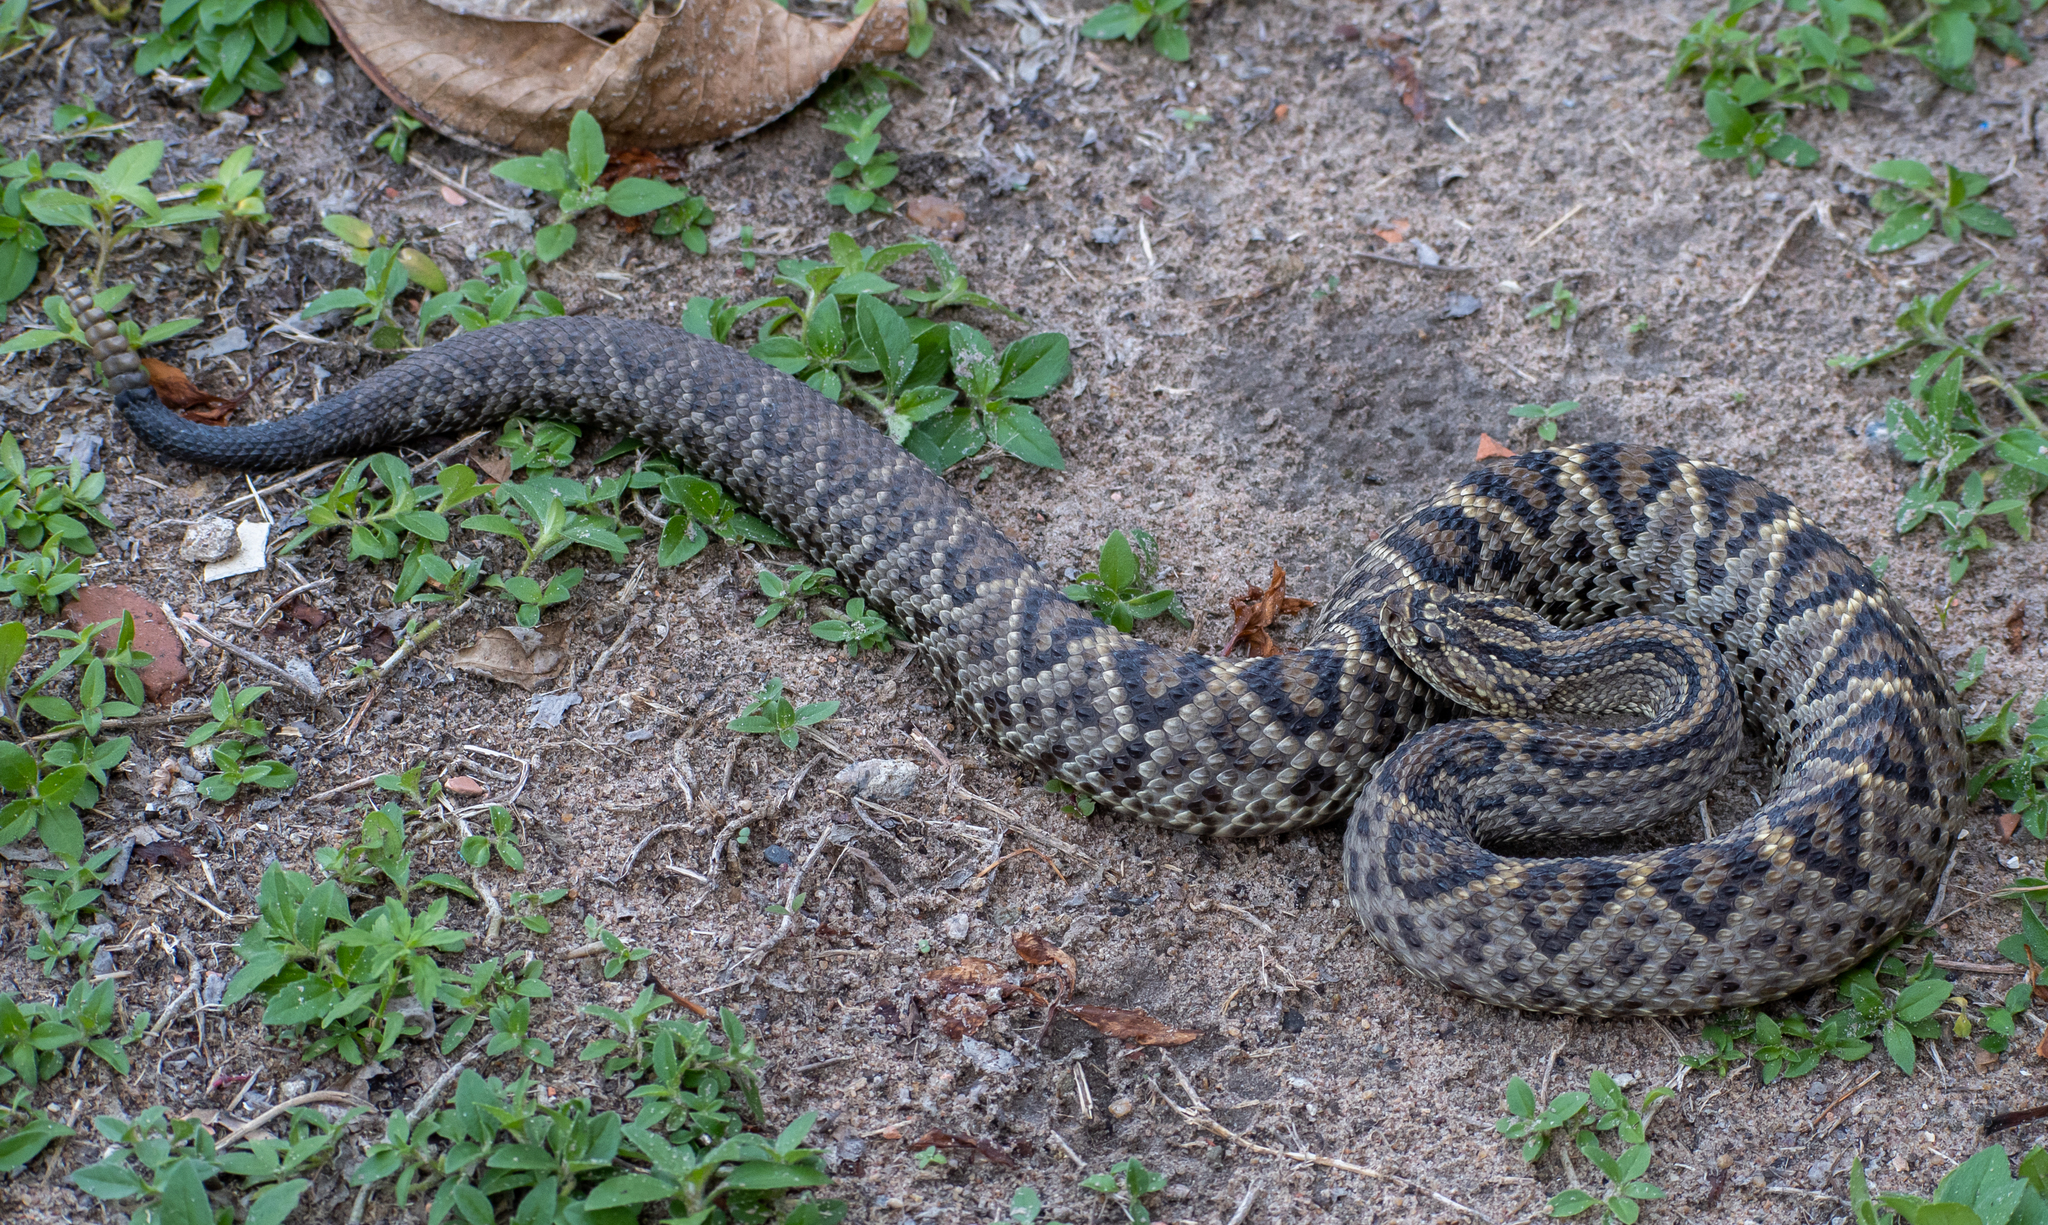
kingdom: Animalia
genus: Crotalus
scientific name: Crotalus durissus
